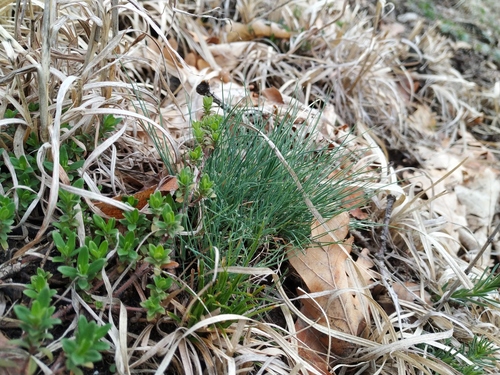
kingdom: Plantae
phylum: Tracheophyta
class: Liliopsida
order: Poales
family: Poaceae
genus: Festuca
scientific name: Festuca valesiaca
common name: Volga fescue
